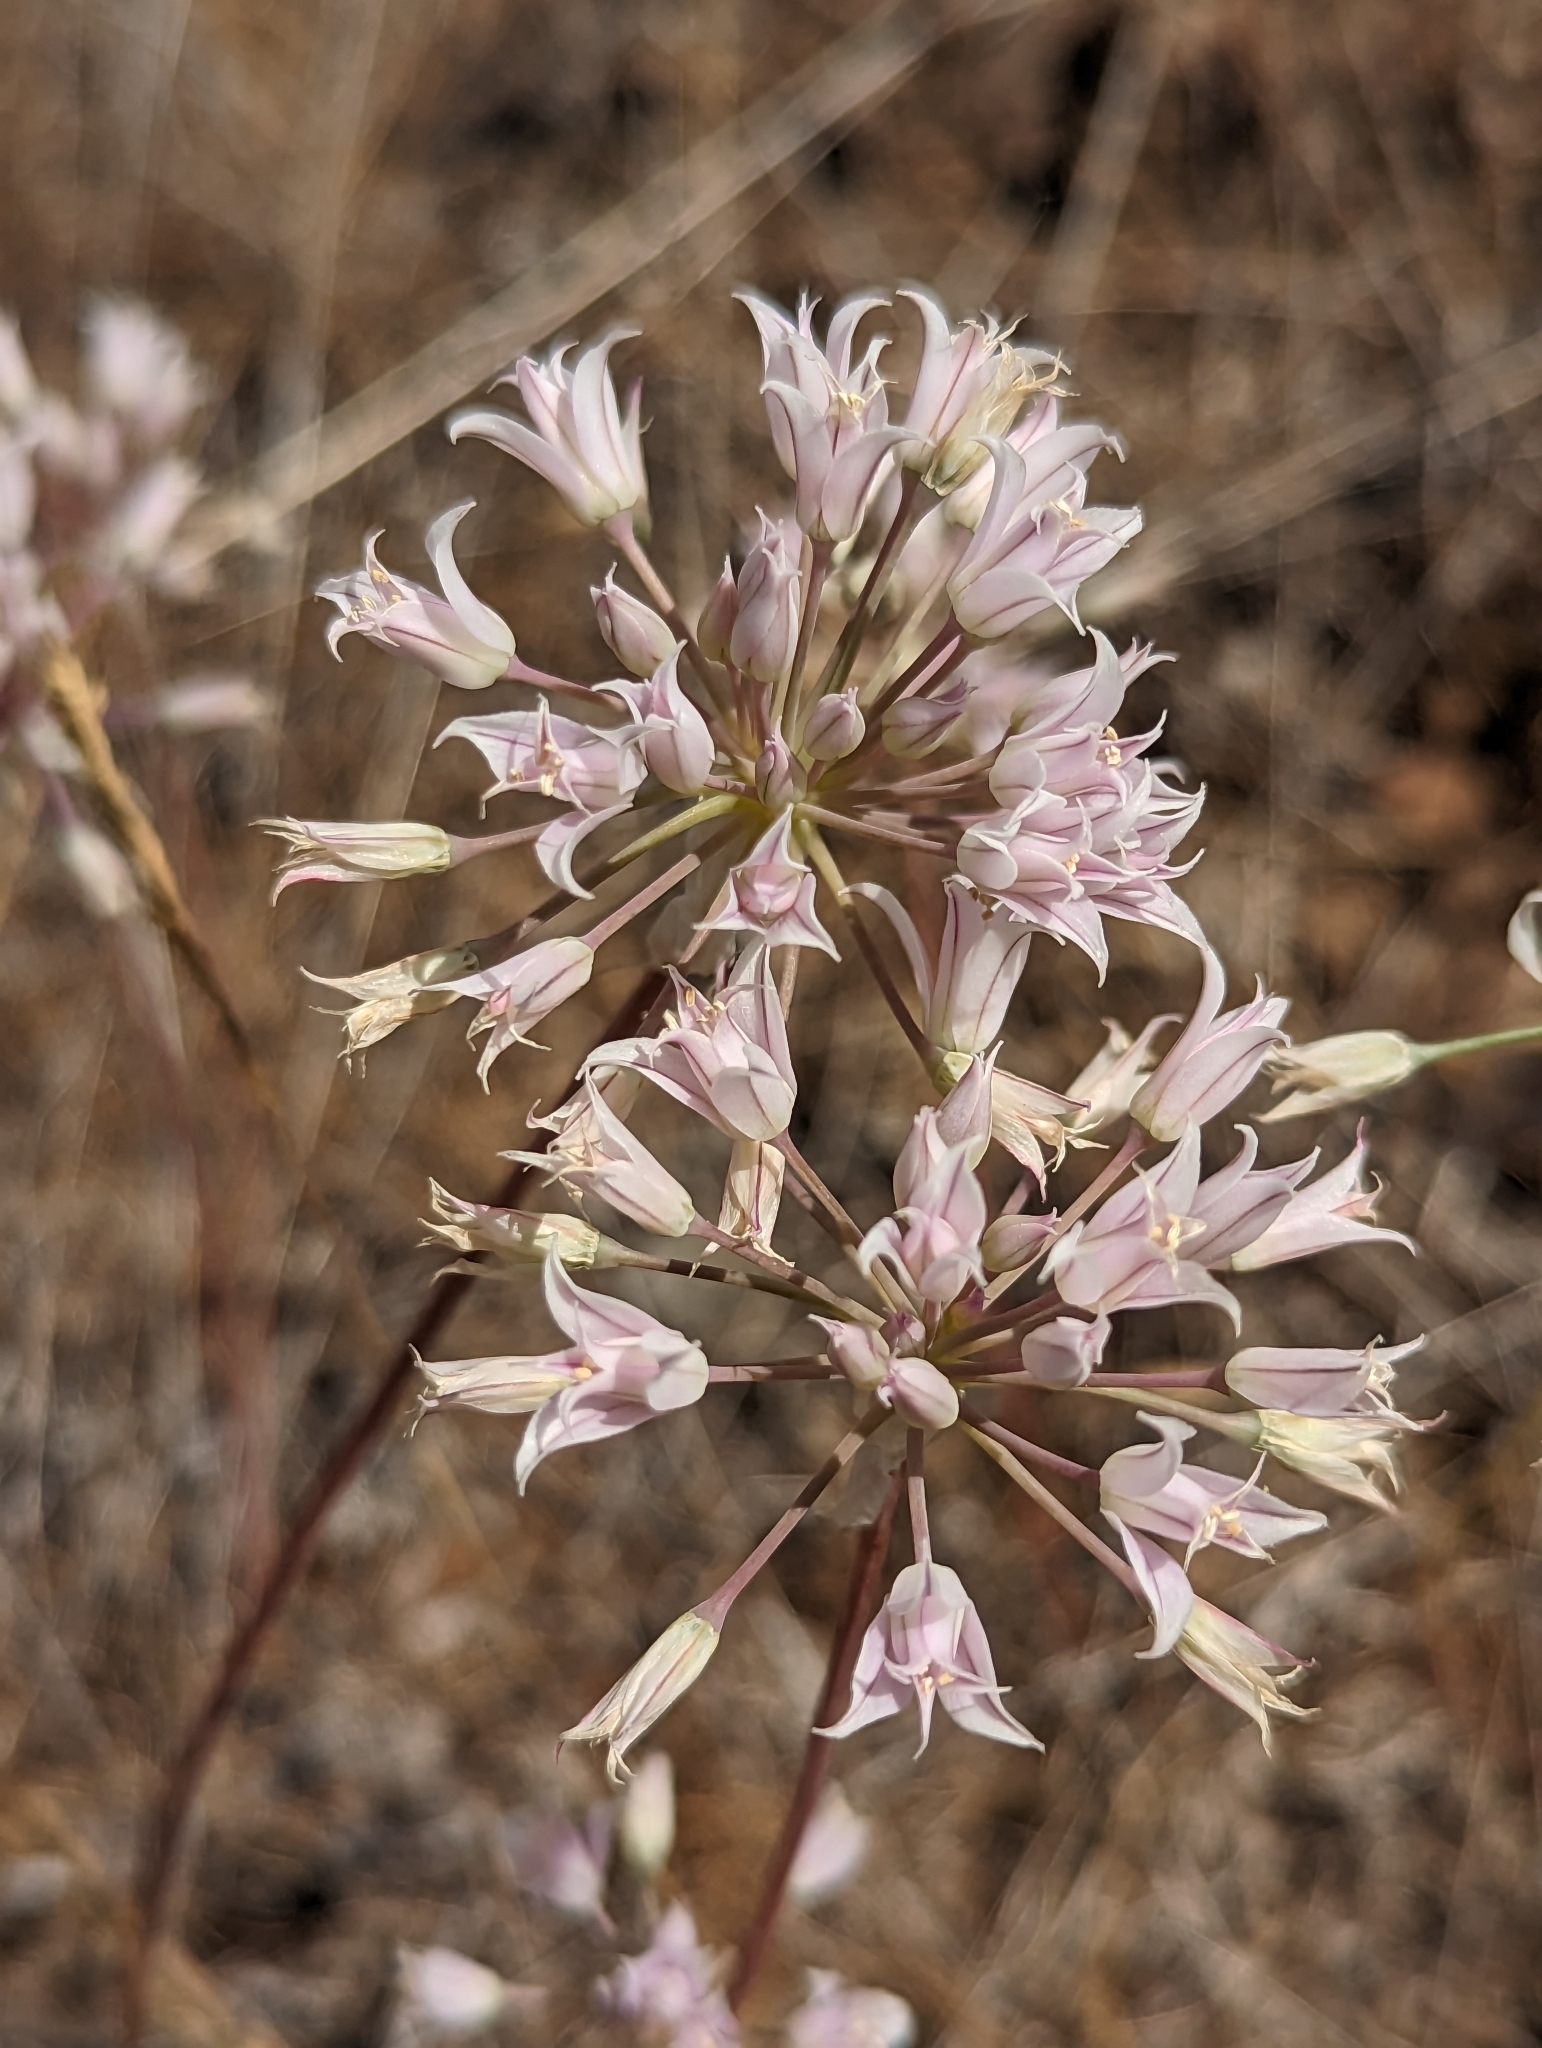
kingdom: Plantae
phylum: Tracheophyta
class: Liliopsida
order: Asparagales
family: Amaryllidaceae
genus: Allium
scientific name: Allium acuminatum
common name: Hooker's onion
